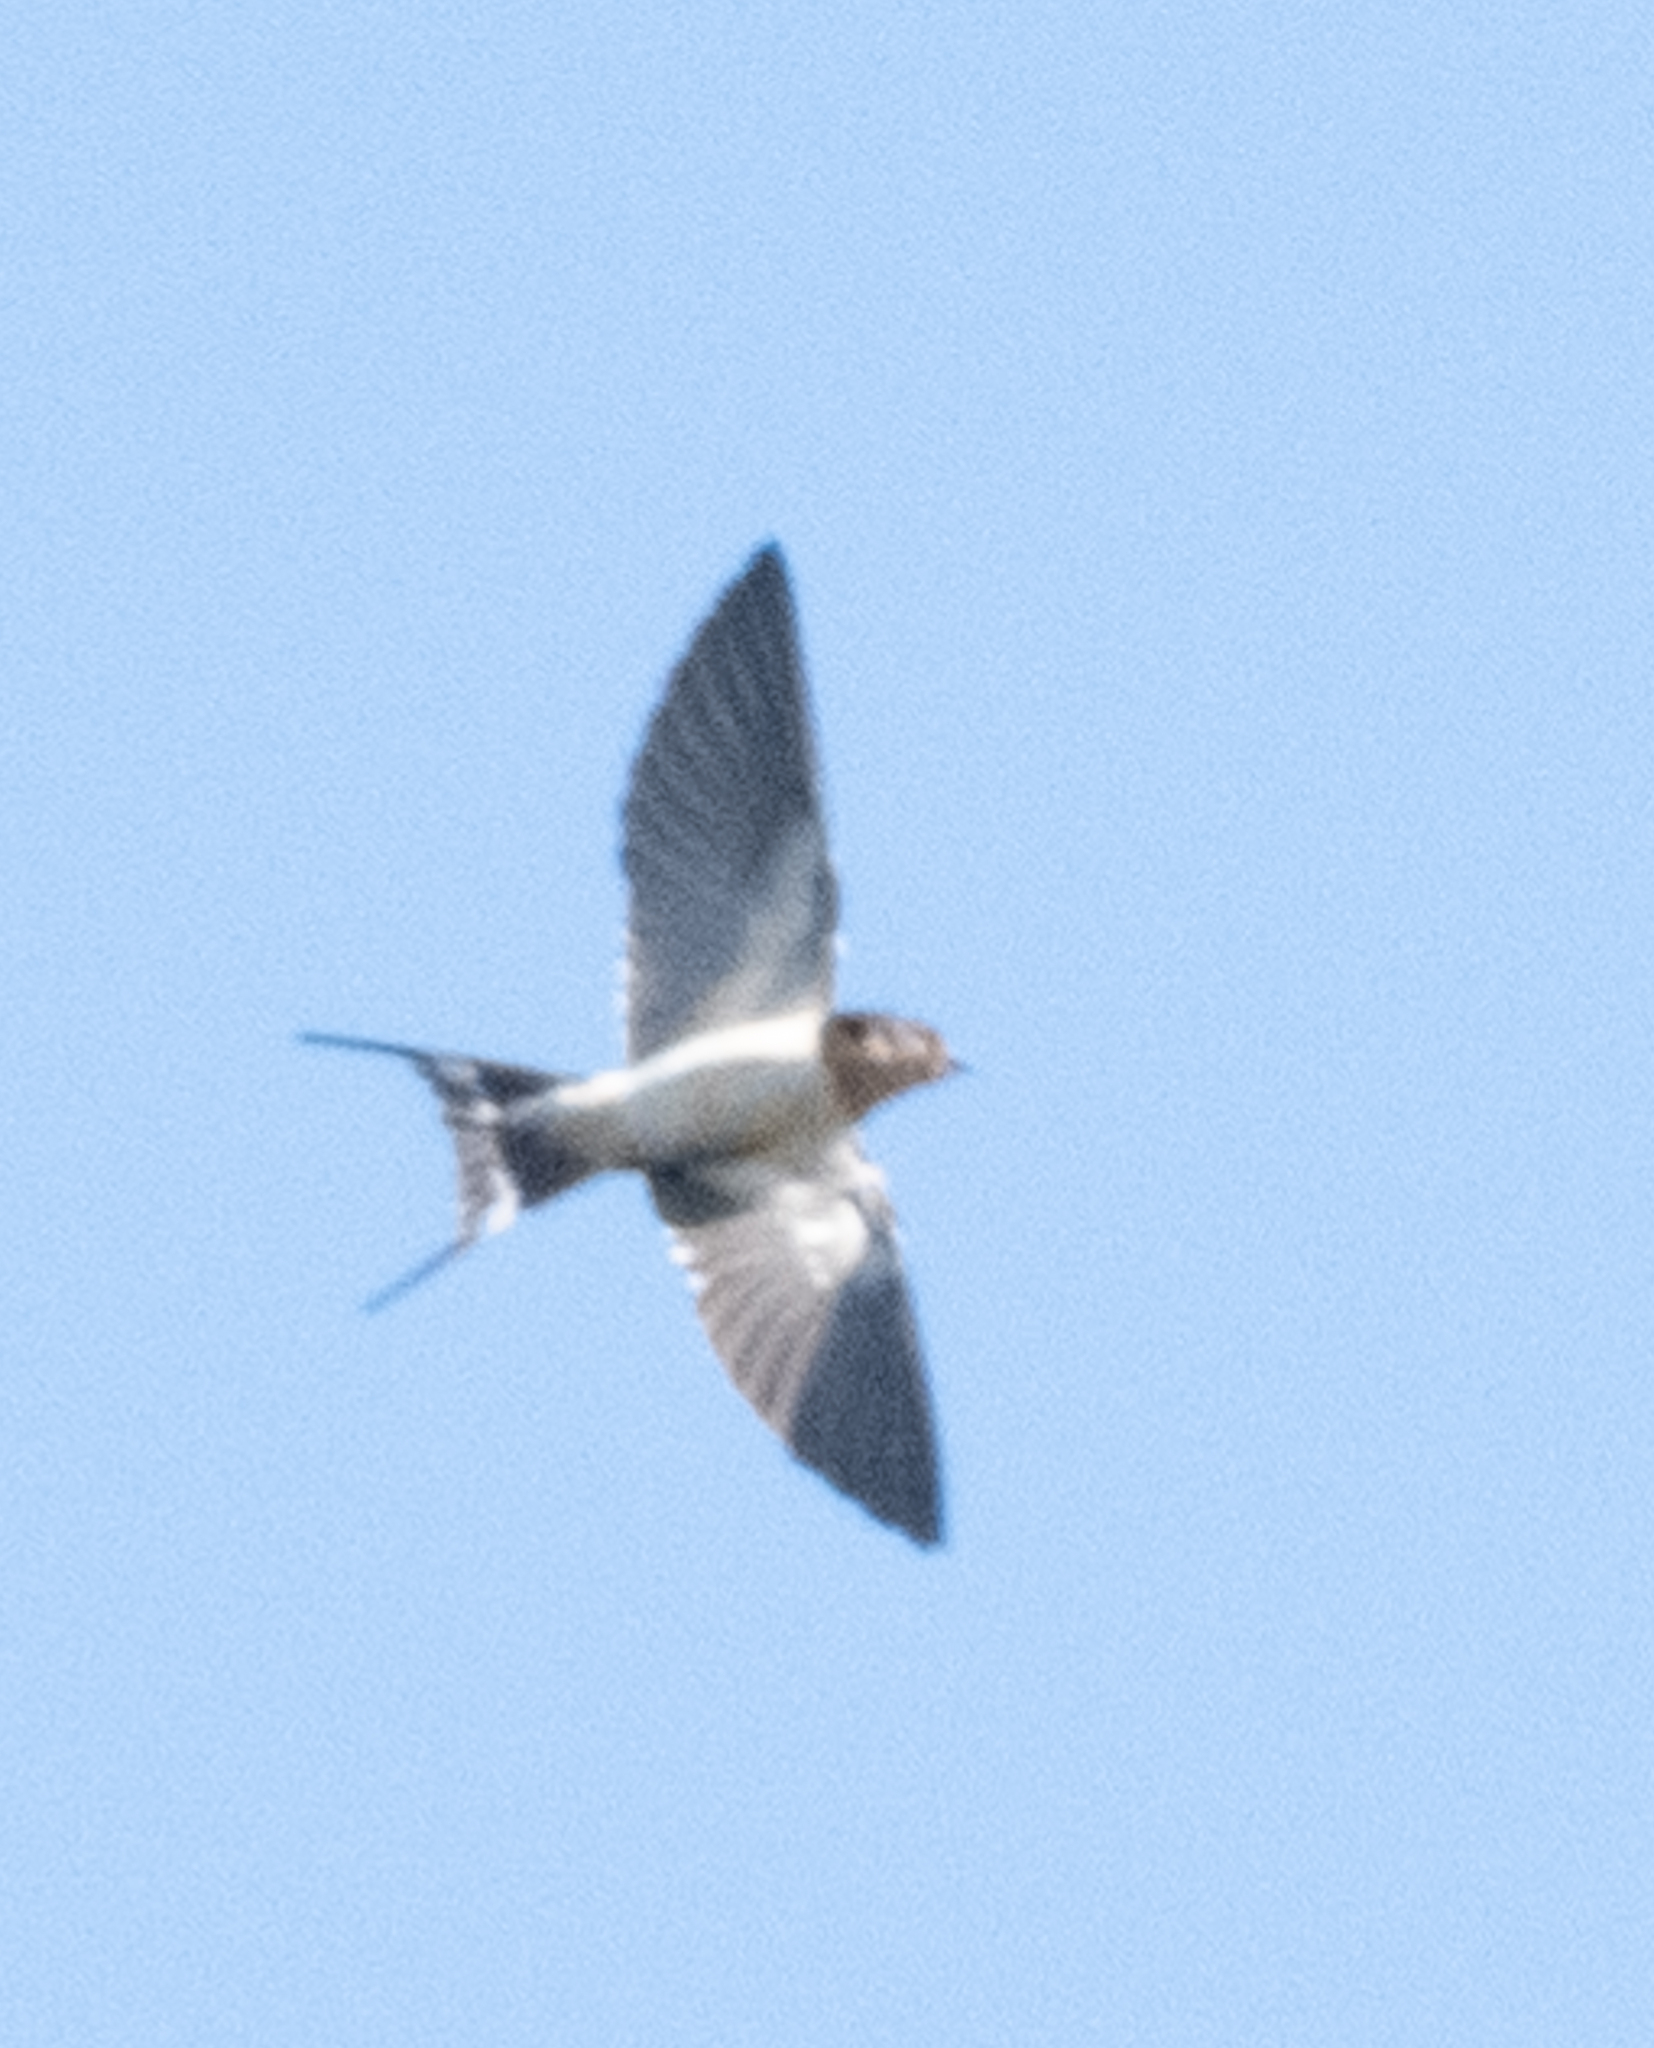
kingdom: Animalia
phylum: Chordata
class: Aves
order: Passeriformes
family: Hirundinidae
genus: Hirundo
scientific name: Hirundo rustica
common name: Barn swallow
